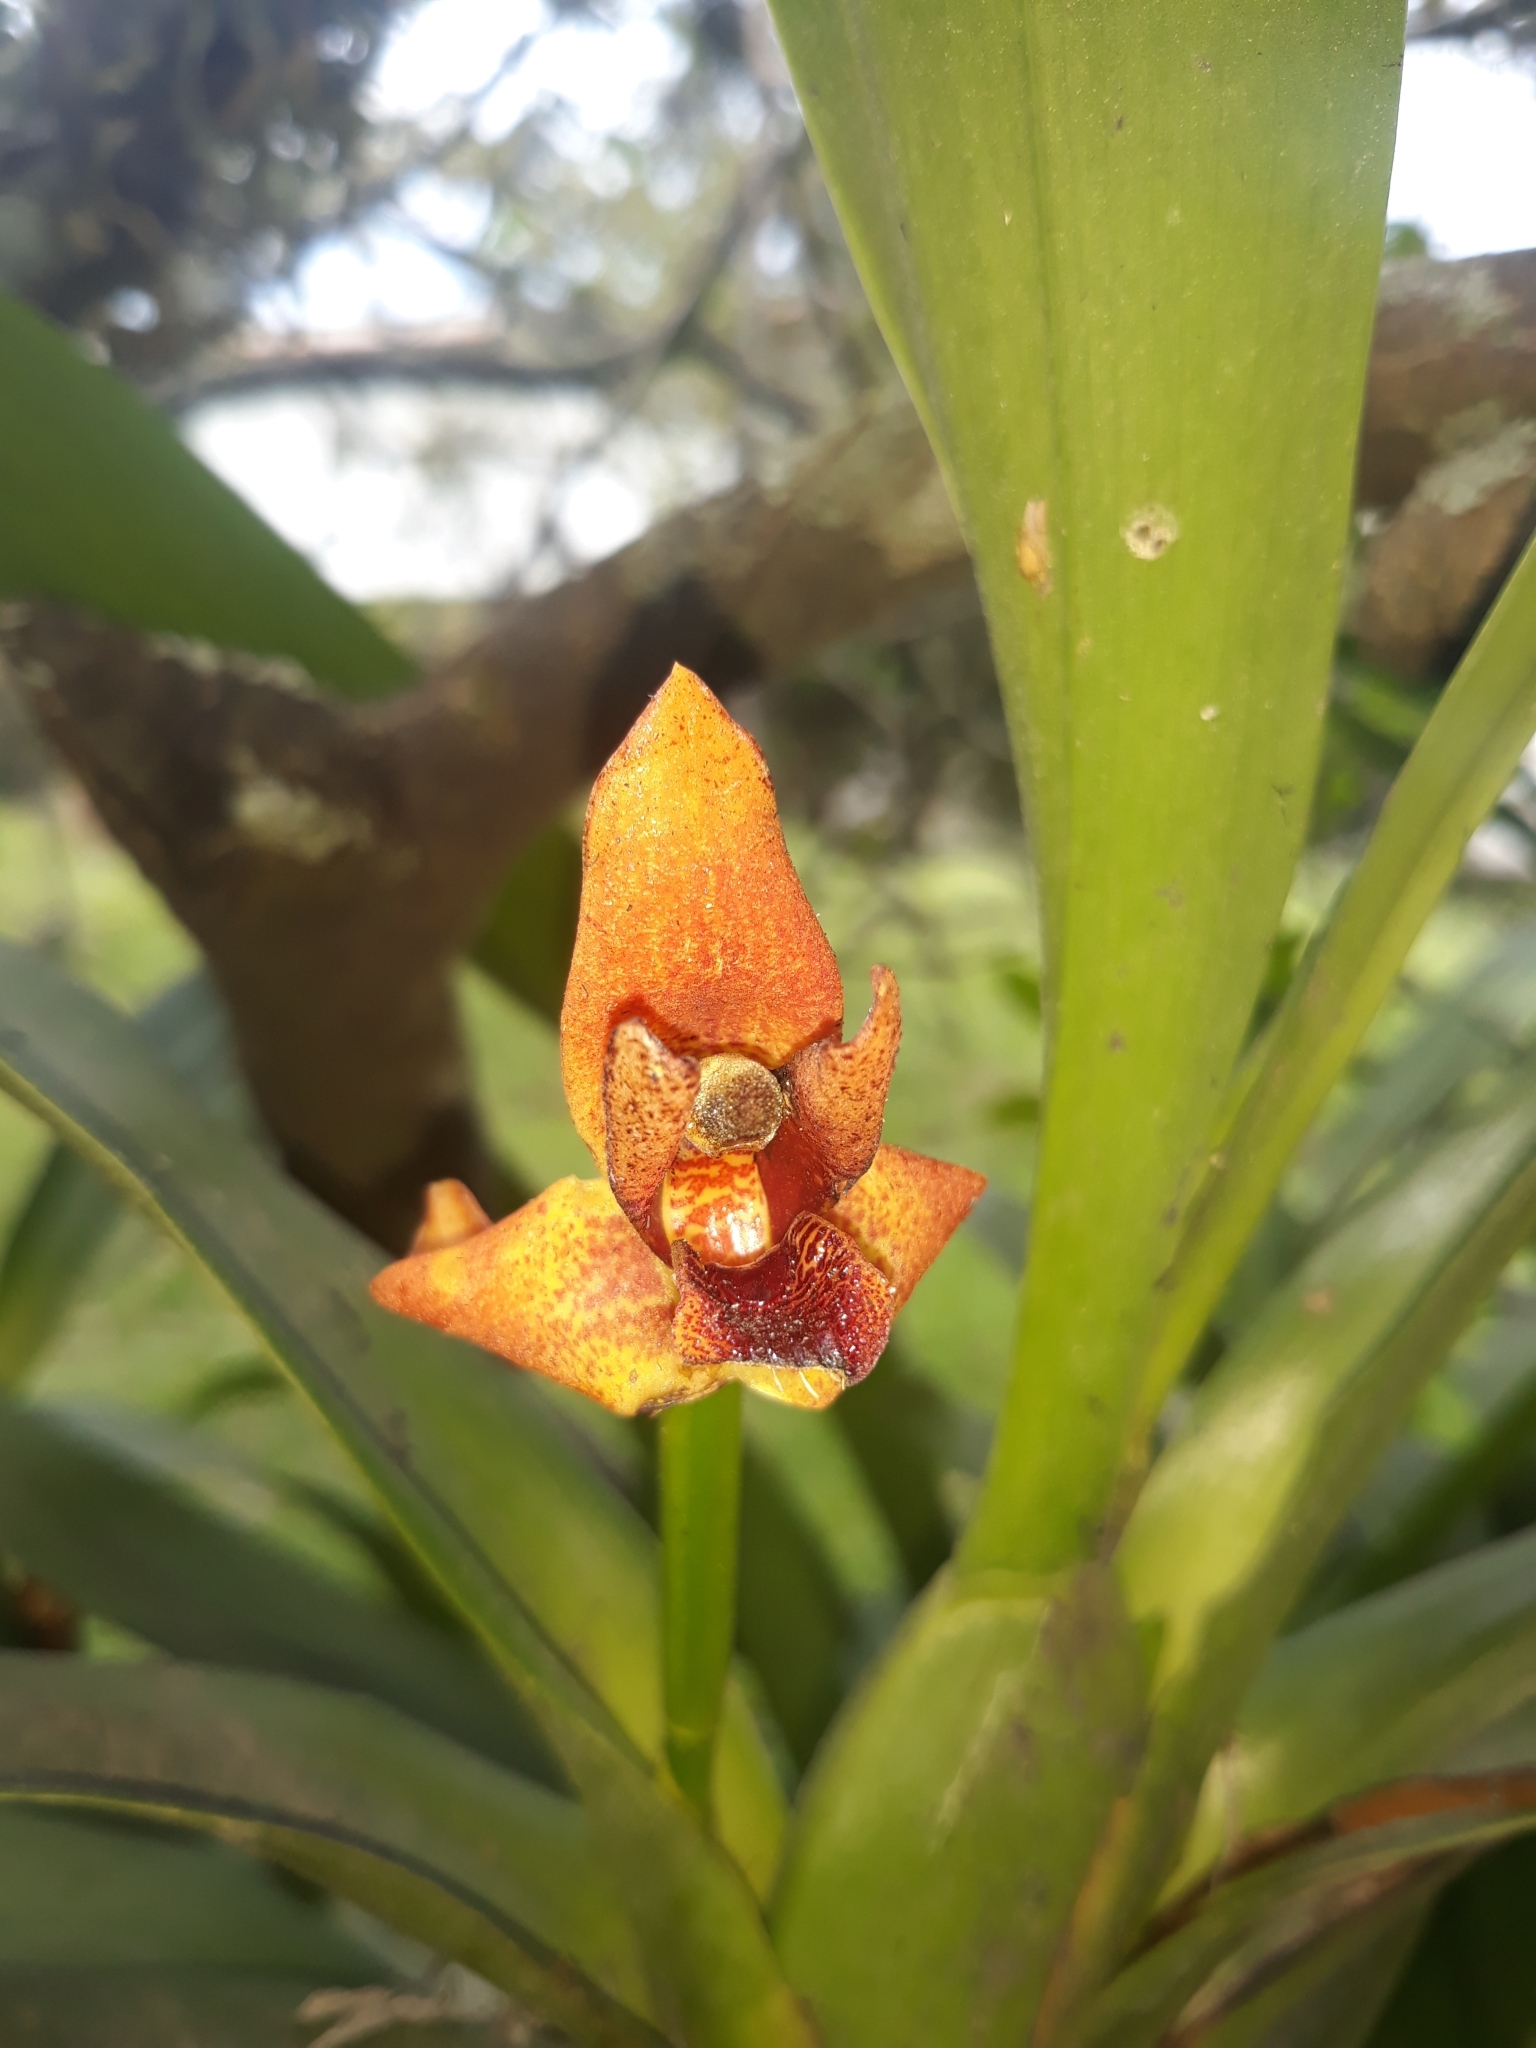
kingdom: Plantae
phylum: Tracheophyta
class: Liliopsida
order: Asparagales
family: Orchidaceae
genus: Maxillaria
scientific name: Maxillaria elatior
